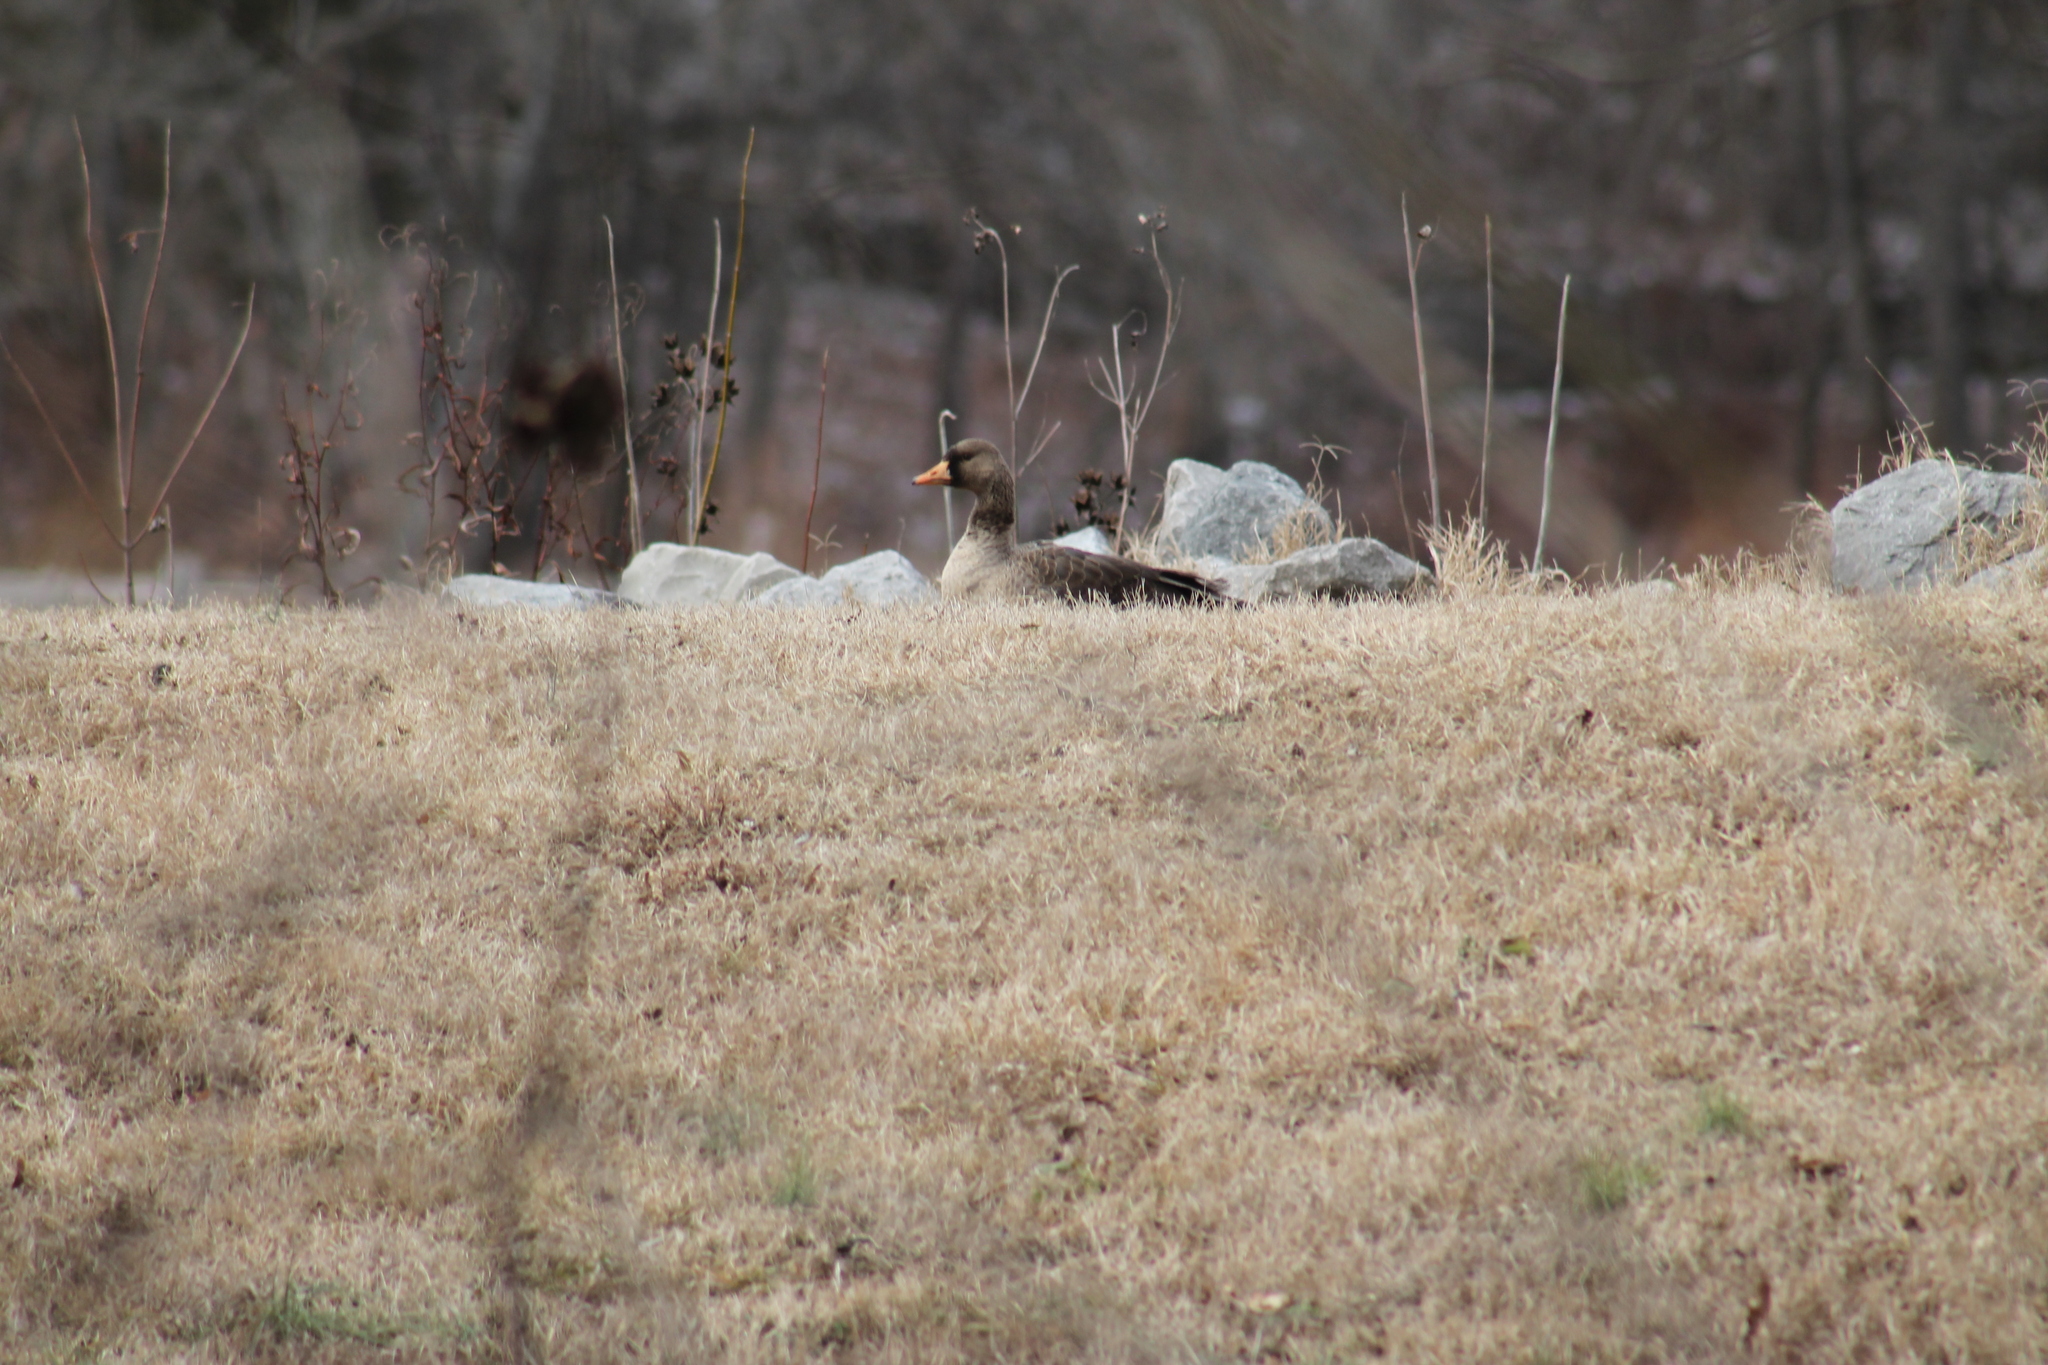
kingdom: Animalia
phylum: Chordata
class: Aves
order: Anseriformes
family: Anatidae
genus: Anser
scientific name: Anser albifrons
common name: Greater white-fronted goose
